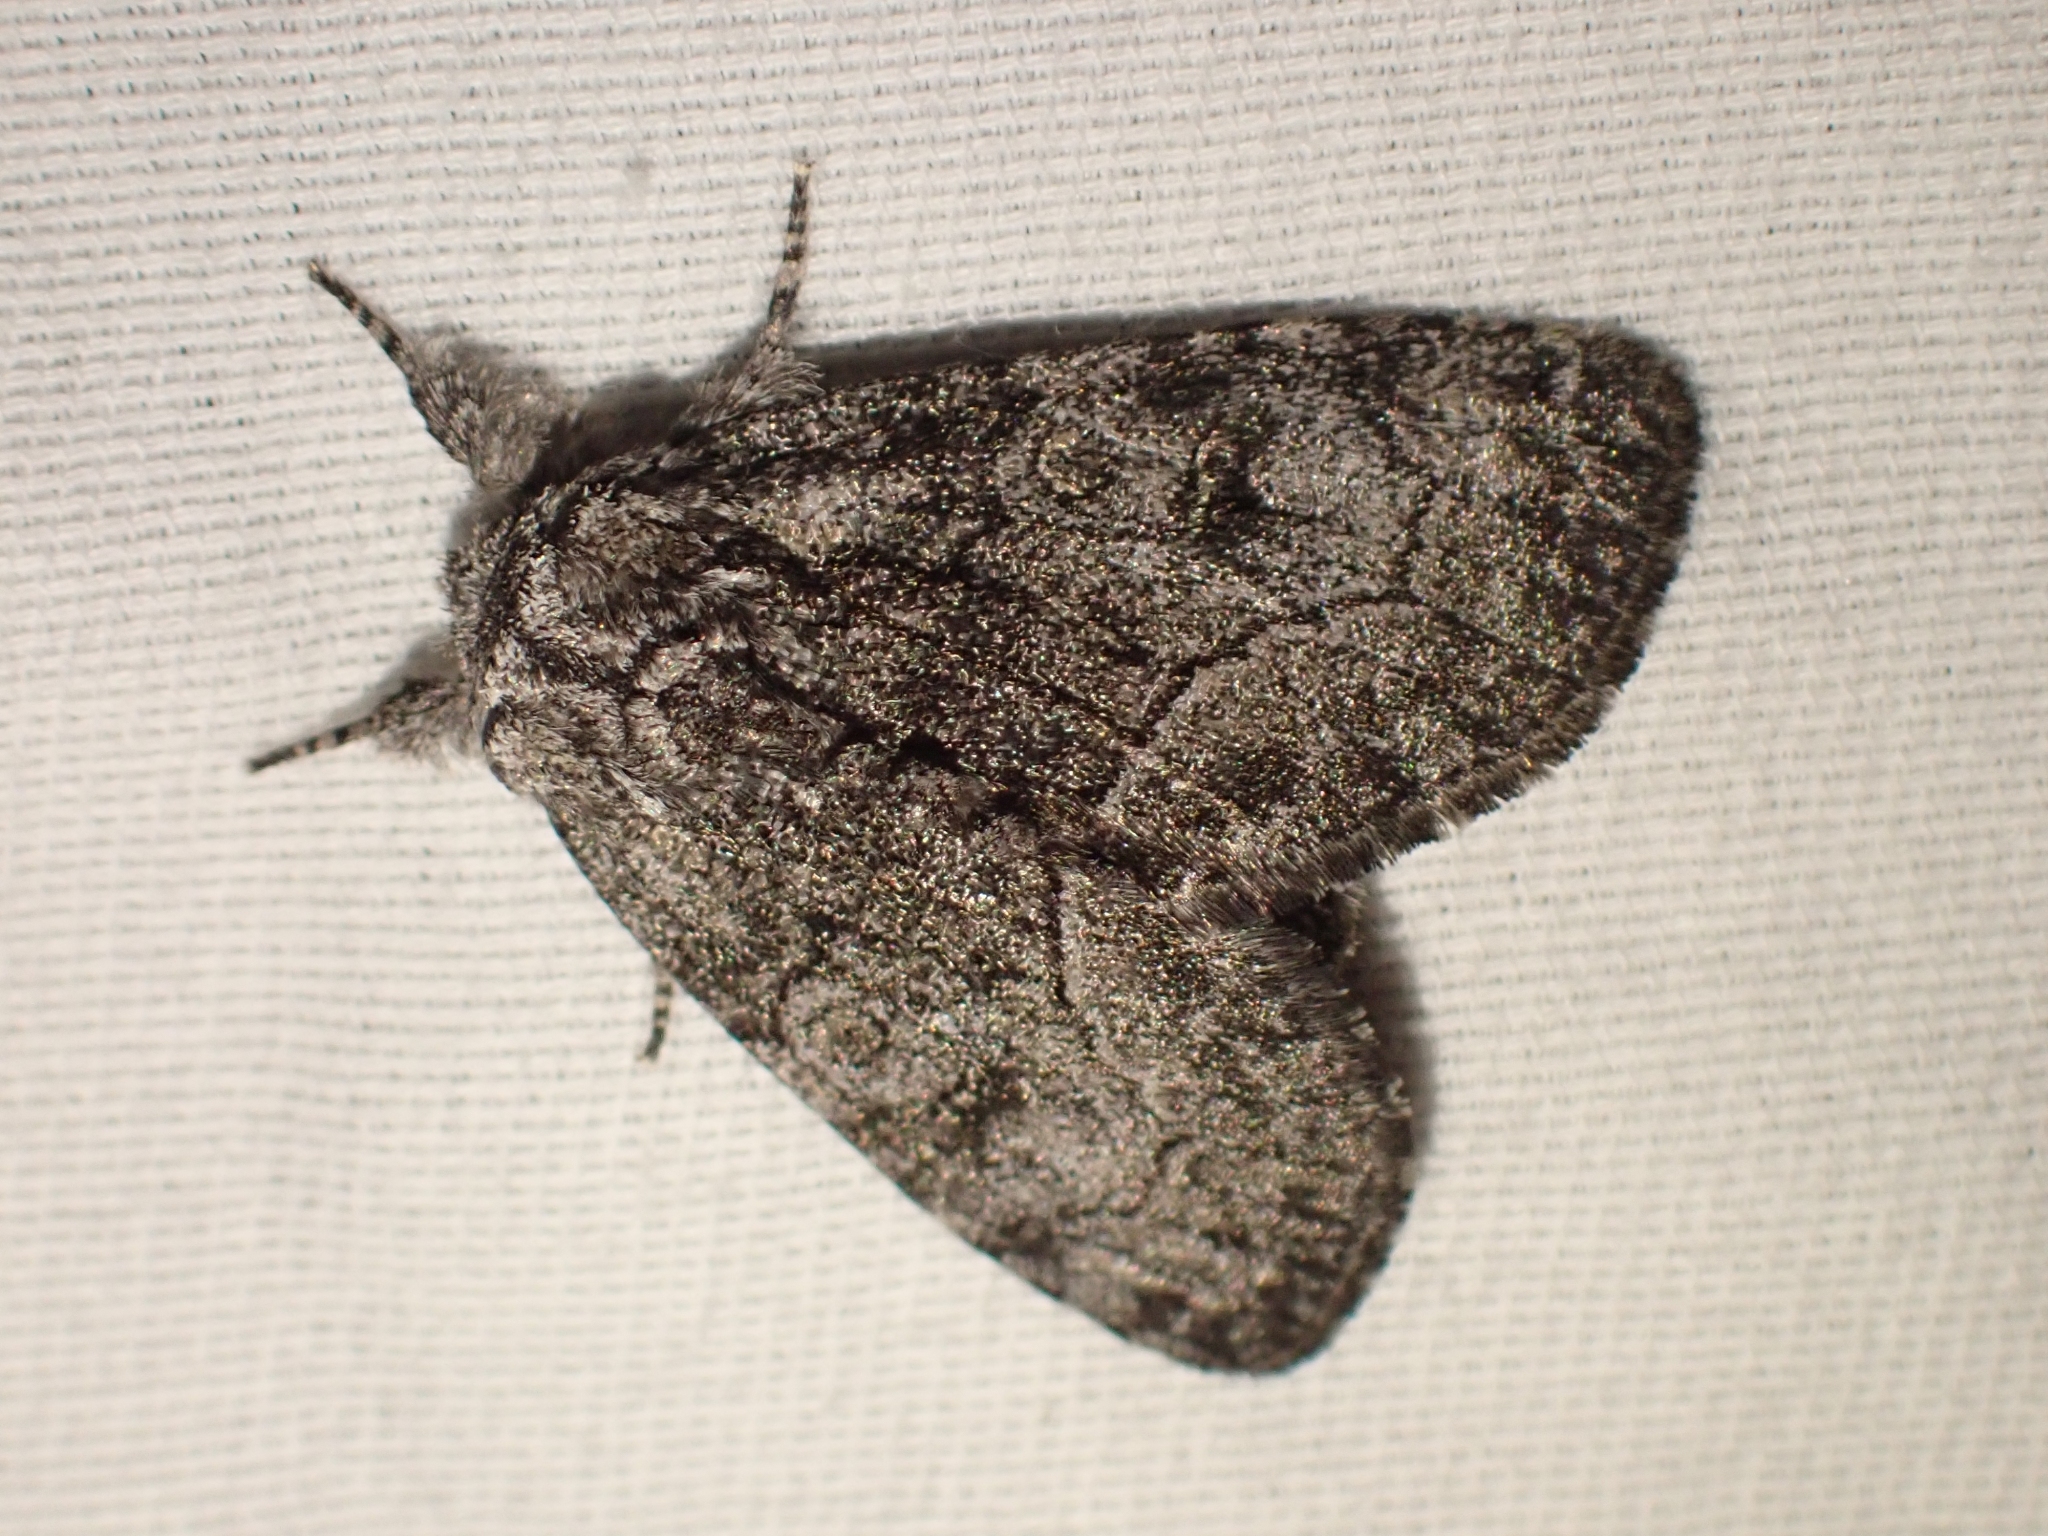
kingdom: Animalia
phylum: Arthropoda
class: Insecta
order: Lepidoptera
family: Noctuidae
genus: Raphia
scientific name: Raphia frater
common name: Brother
